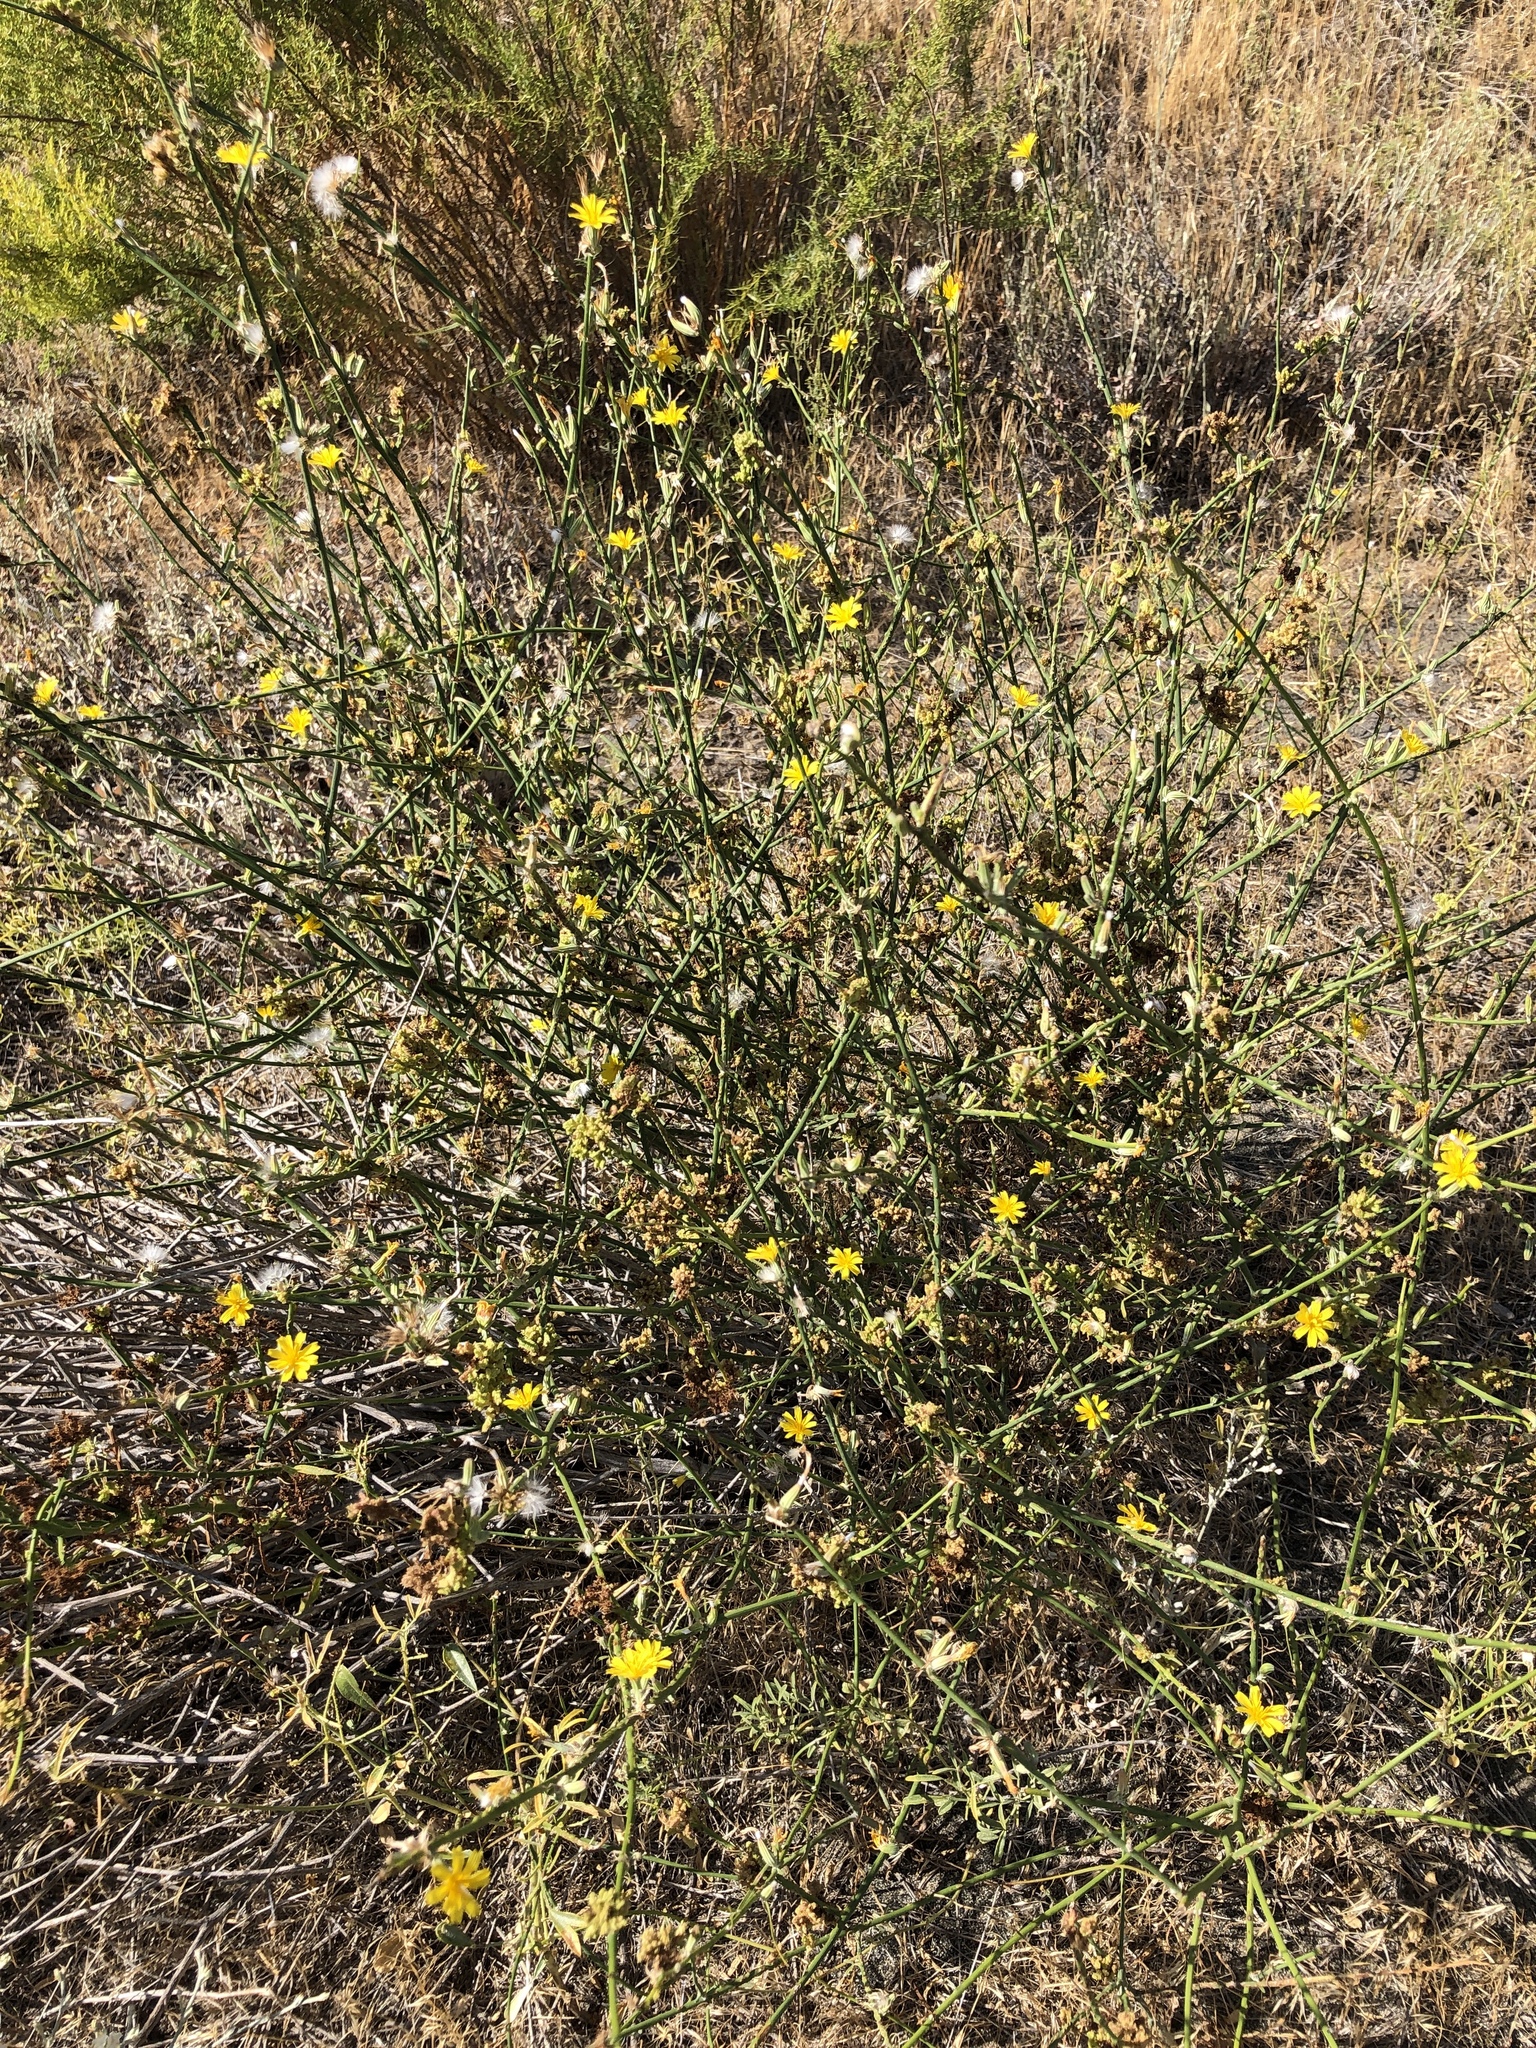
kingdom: Plantae
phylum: Tracheophyta
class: Magnoliopsida
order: Asterales
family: Asteraceae
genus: Chondrilla
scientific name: Chondrilla juncea
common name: Skeleton weed
